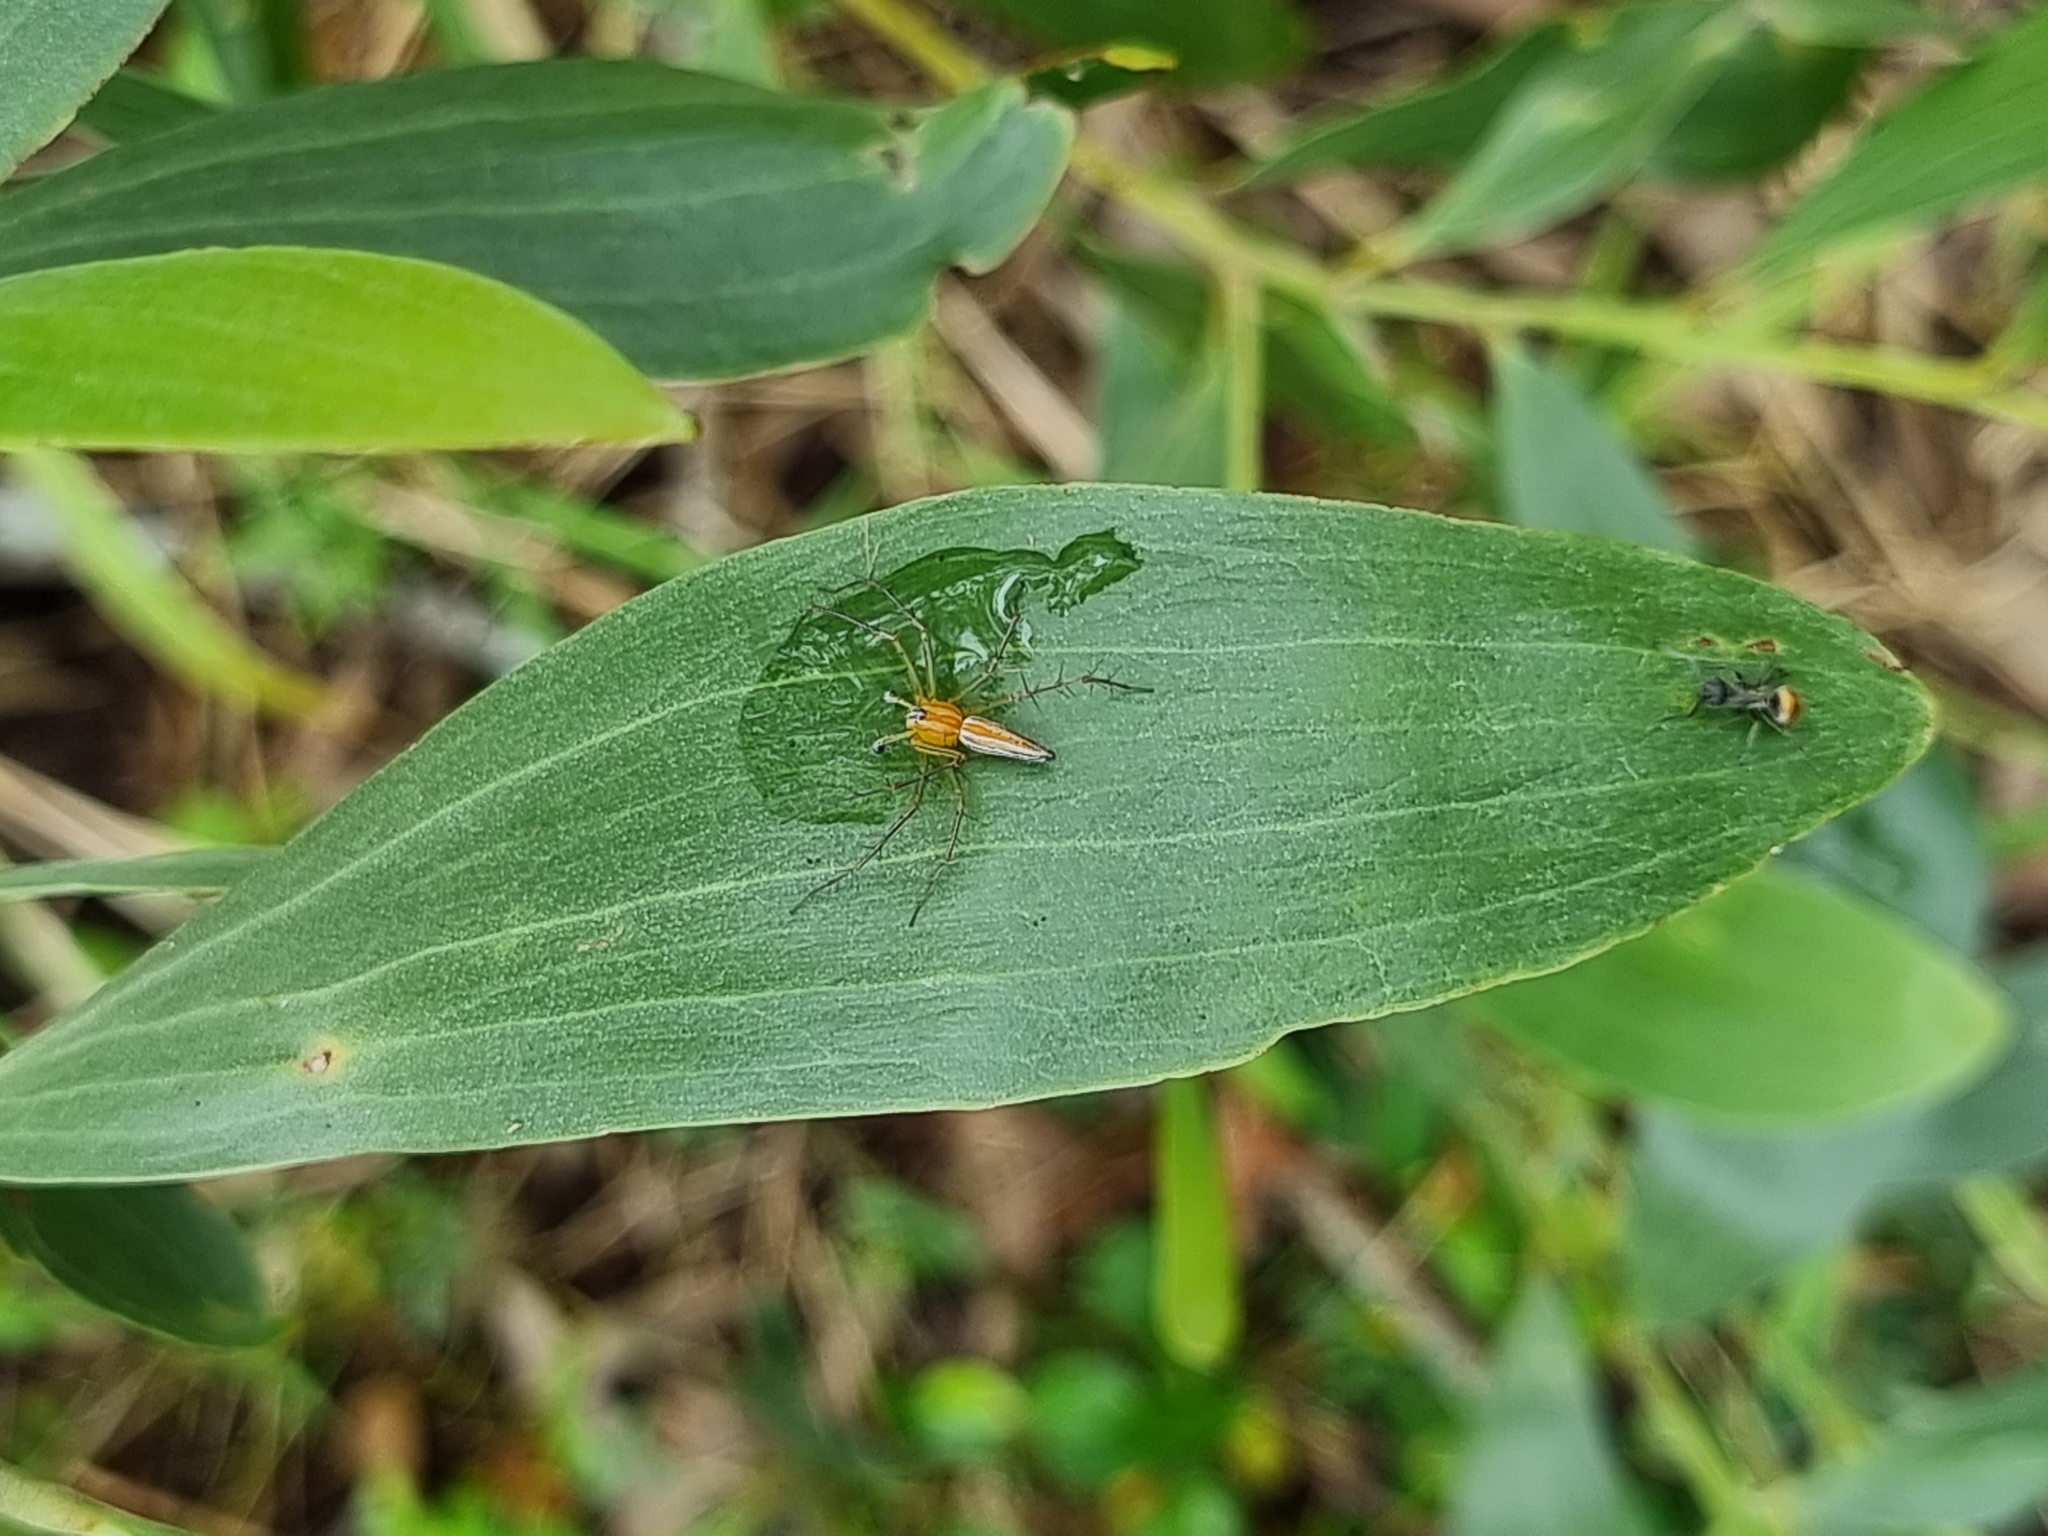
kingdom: Animalia
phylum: Arthropoda
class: Arachnida
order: Araneae
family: Oxyopidae
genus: Oxyopes
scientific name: Oxyopes macilentus
